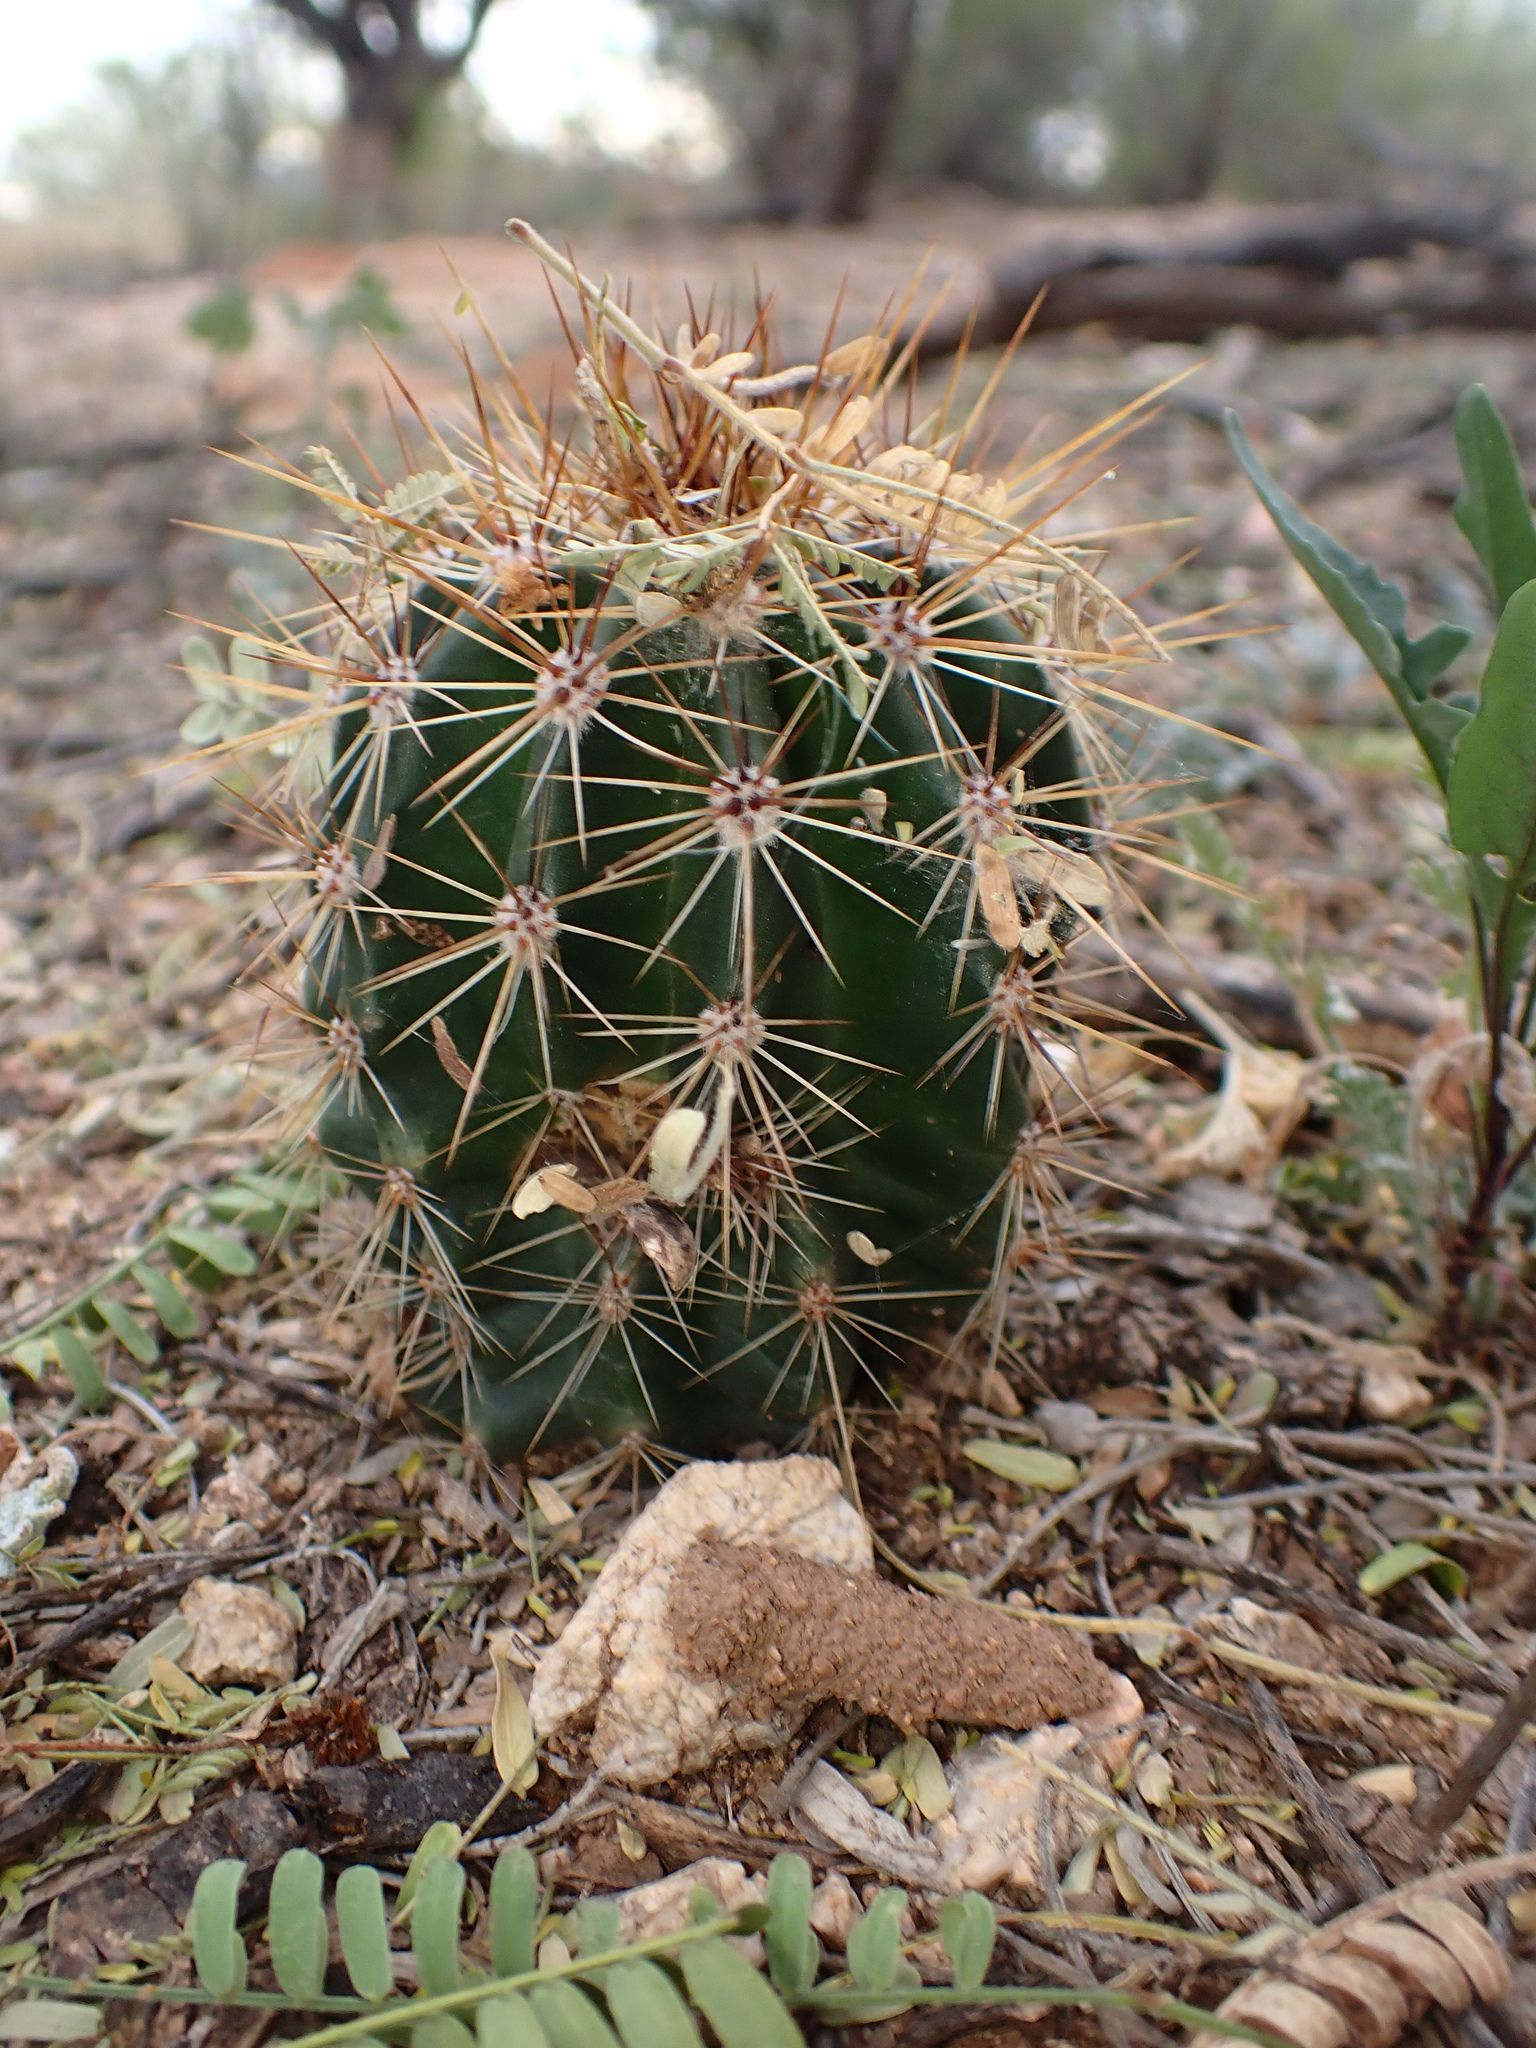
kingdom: Plantae
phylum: Tracheophyta
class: Magnoliopsida
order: Caryophyllales
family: Cactaceae
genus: Carnegiea
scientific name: Carnegiea gigantea
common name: Saguaro
